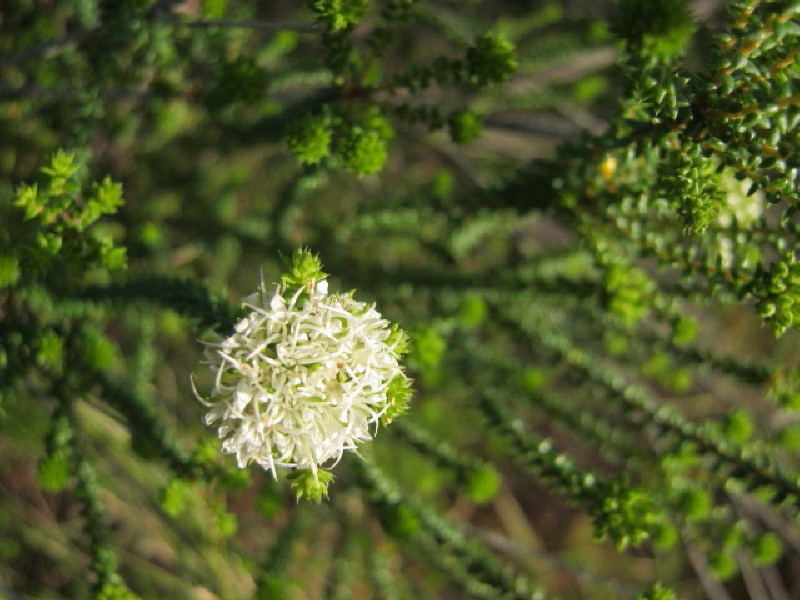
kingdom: Plantae
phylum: Tracheophyta
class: Magnoliopsida
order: Sapindales
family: Rutaceae
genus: Agathosma
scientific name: Agathosma apiculata
